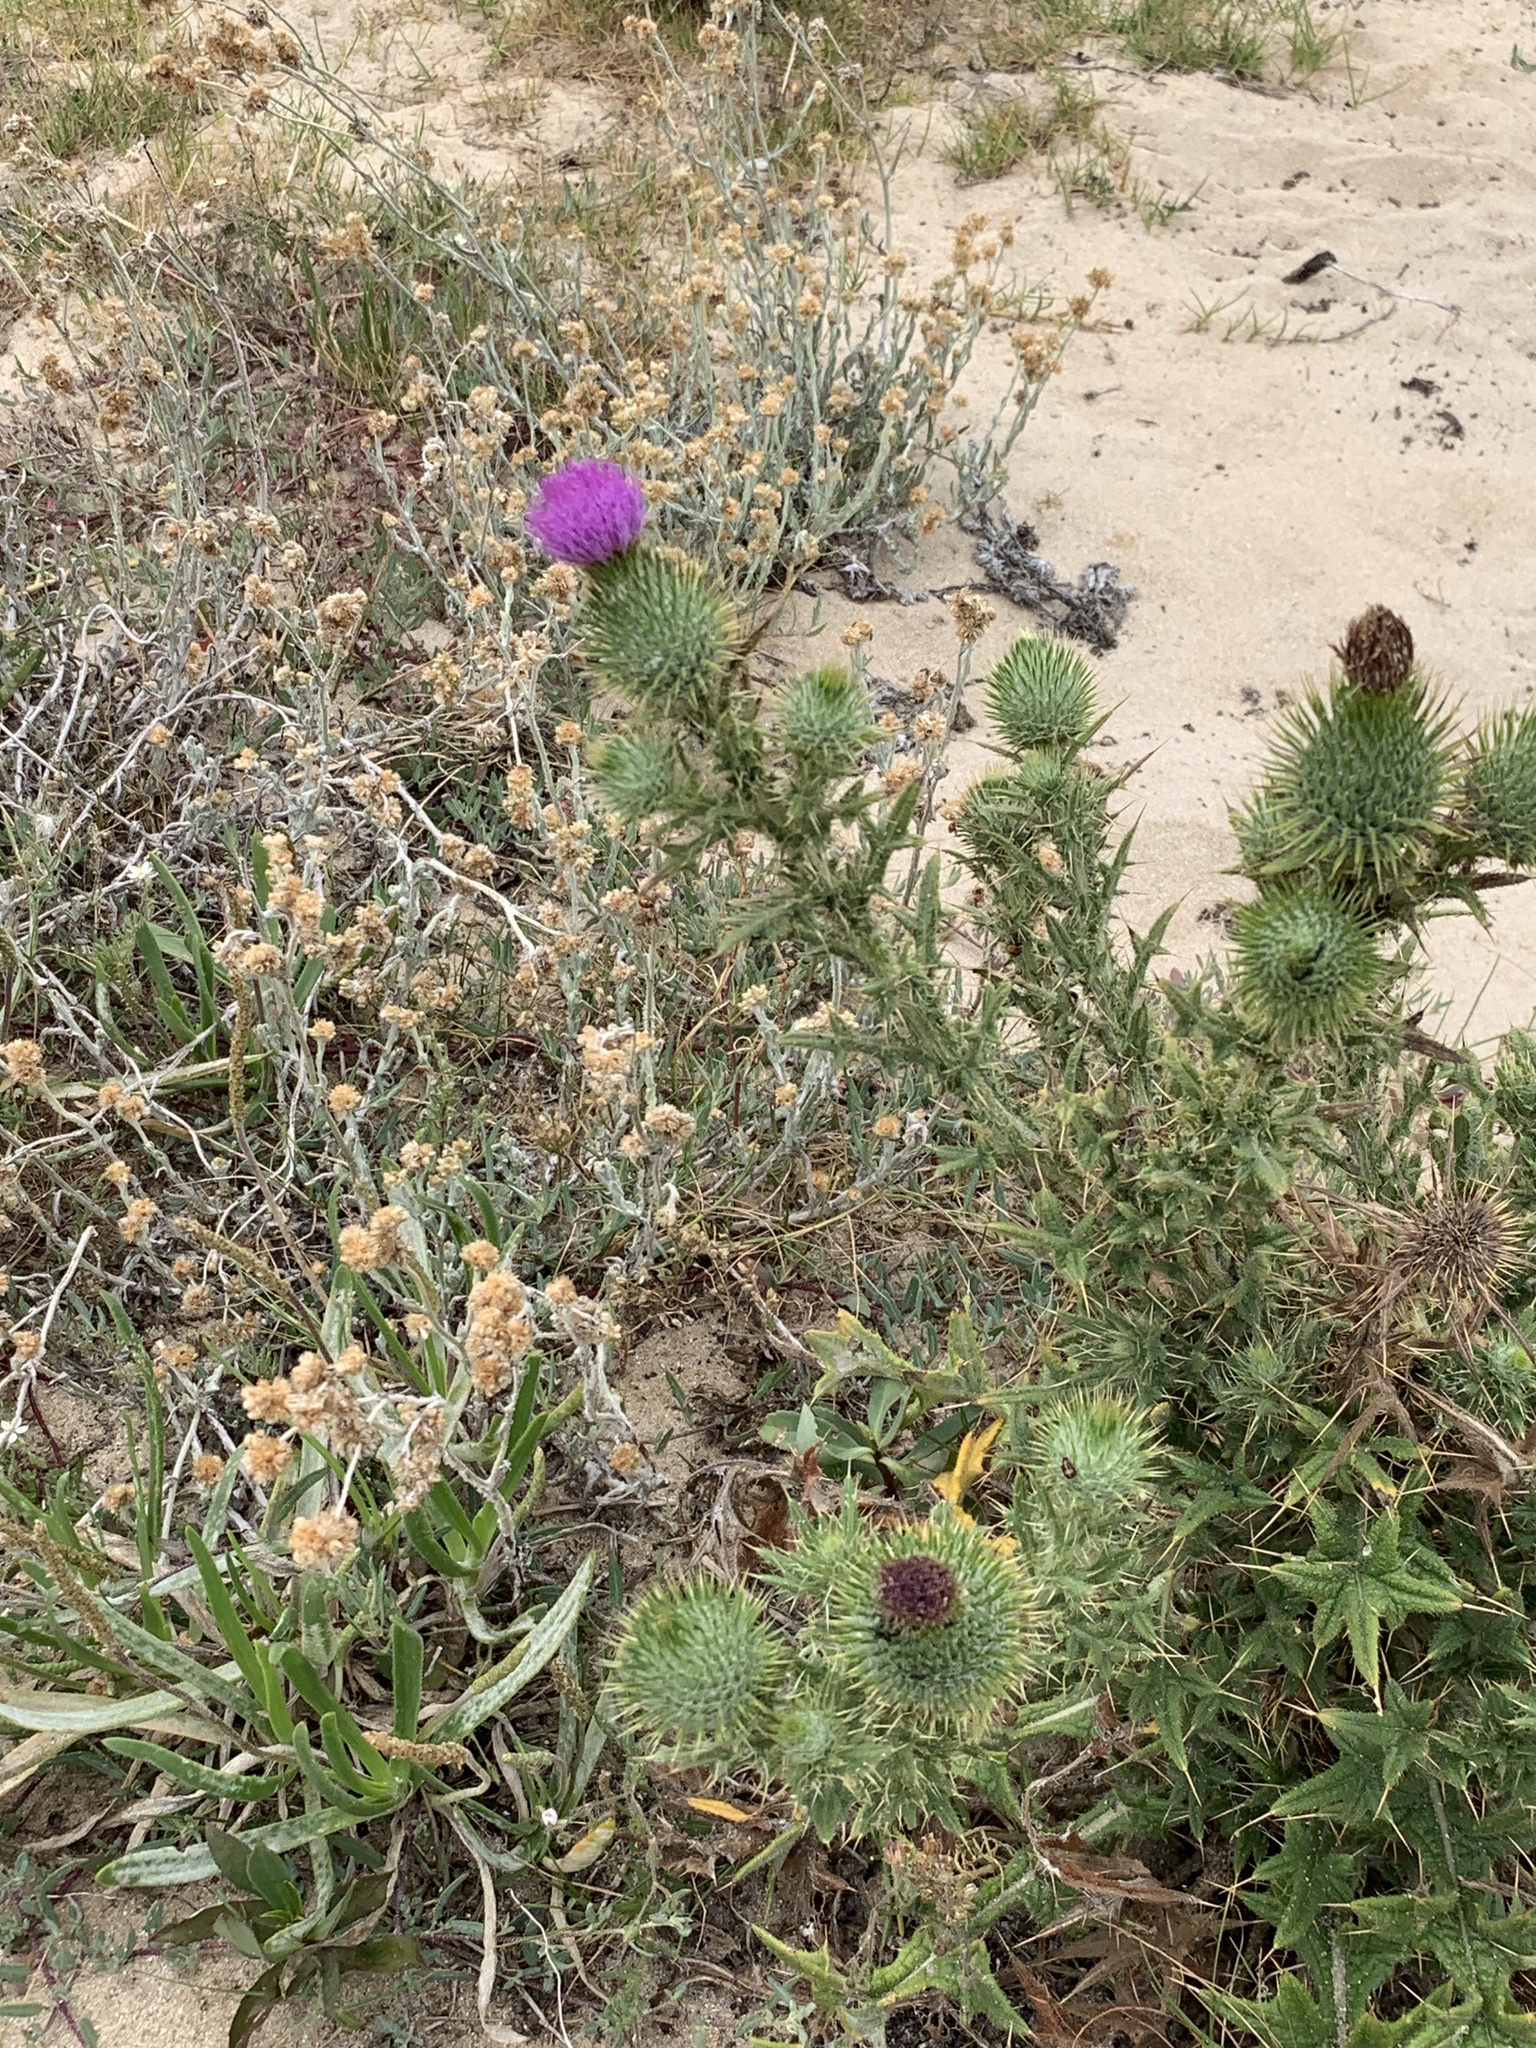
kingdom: Plantae
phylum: Tracheophyta
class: Magnoliopsida
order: Asterales
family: Asteraceae
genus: Cirsium
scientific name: Cirsium vulgare
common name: Bull thistle
